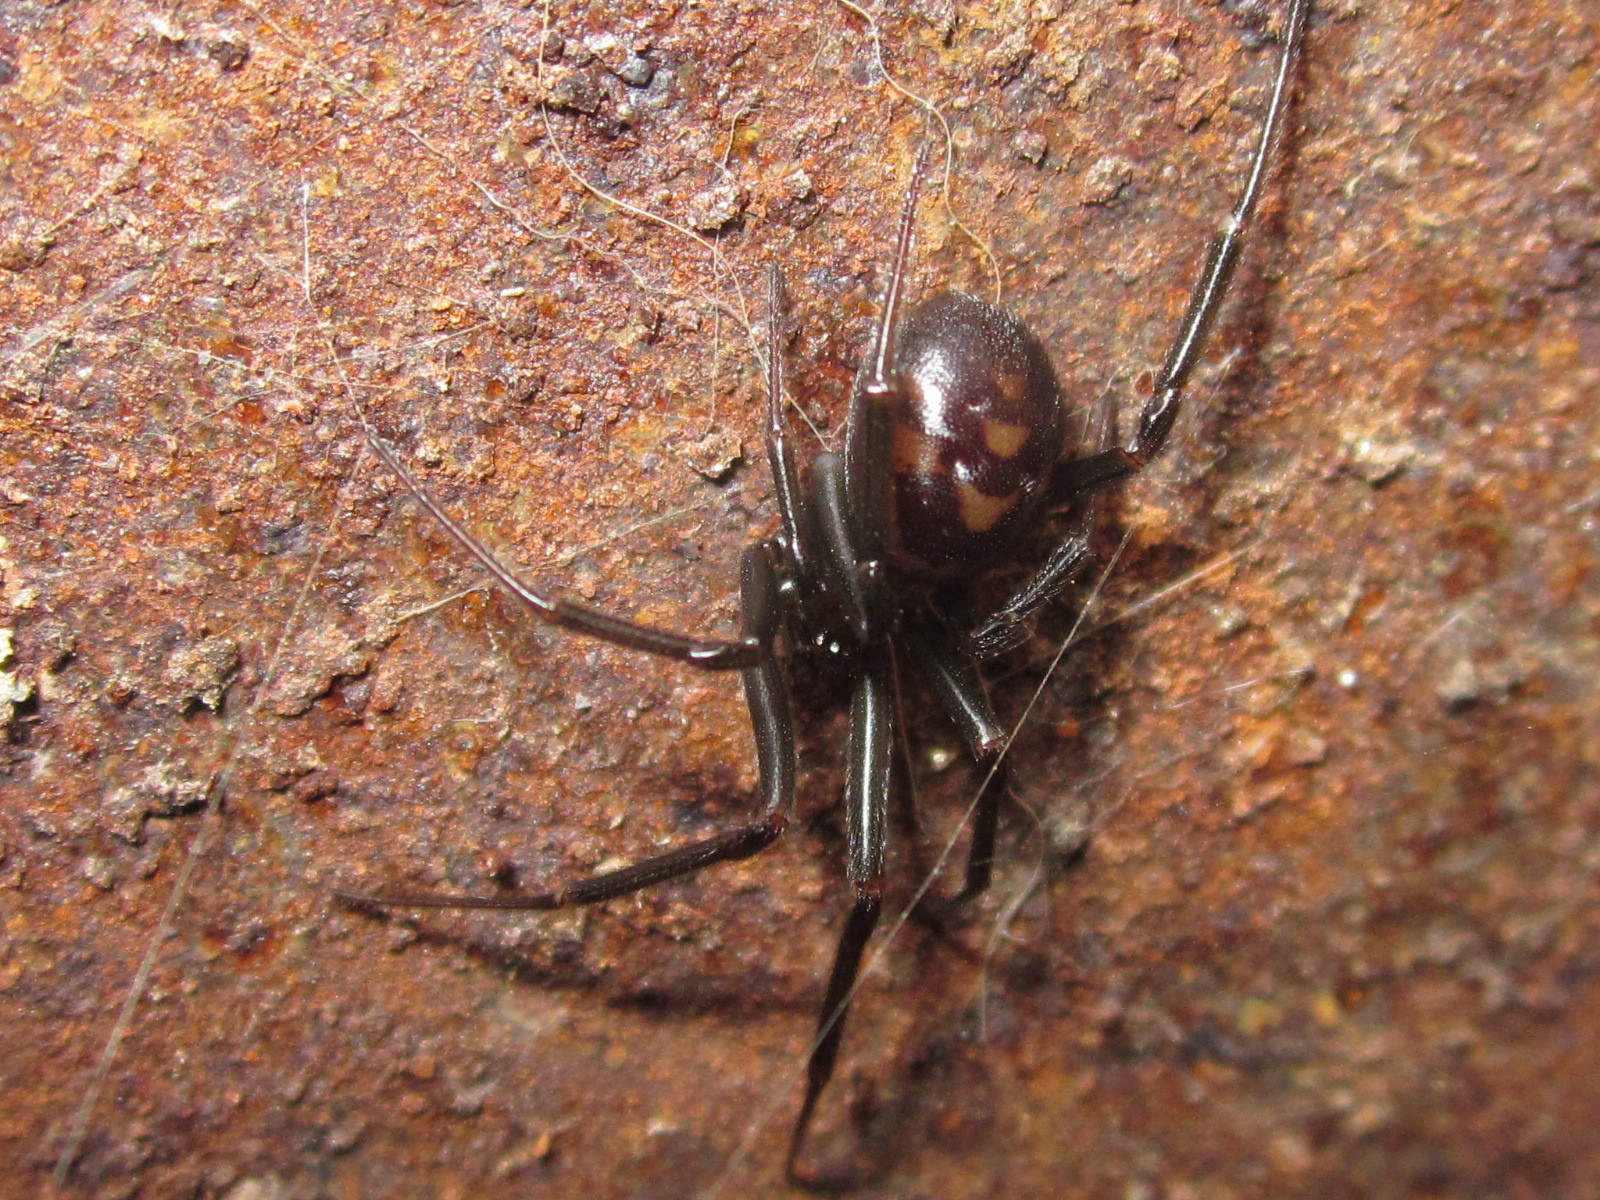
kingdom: Animalia
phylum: Arthropoda
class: Arachnida
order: Araneae
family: Theridiidae
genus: Steatoda
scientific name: Steatoda grossa
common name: False black widow
